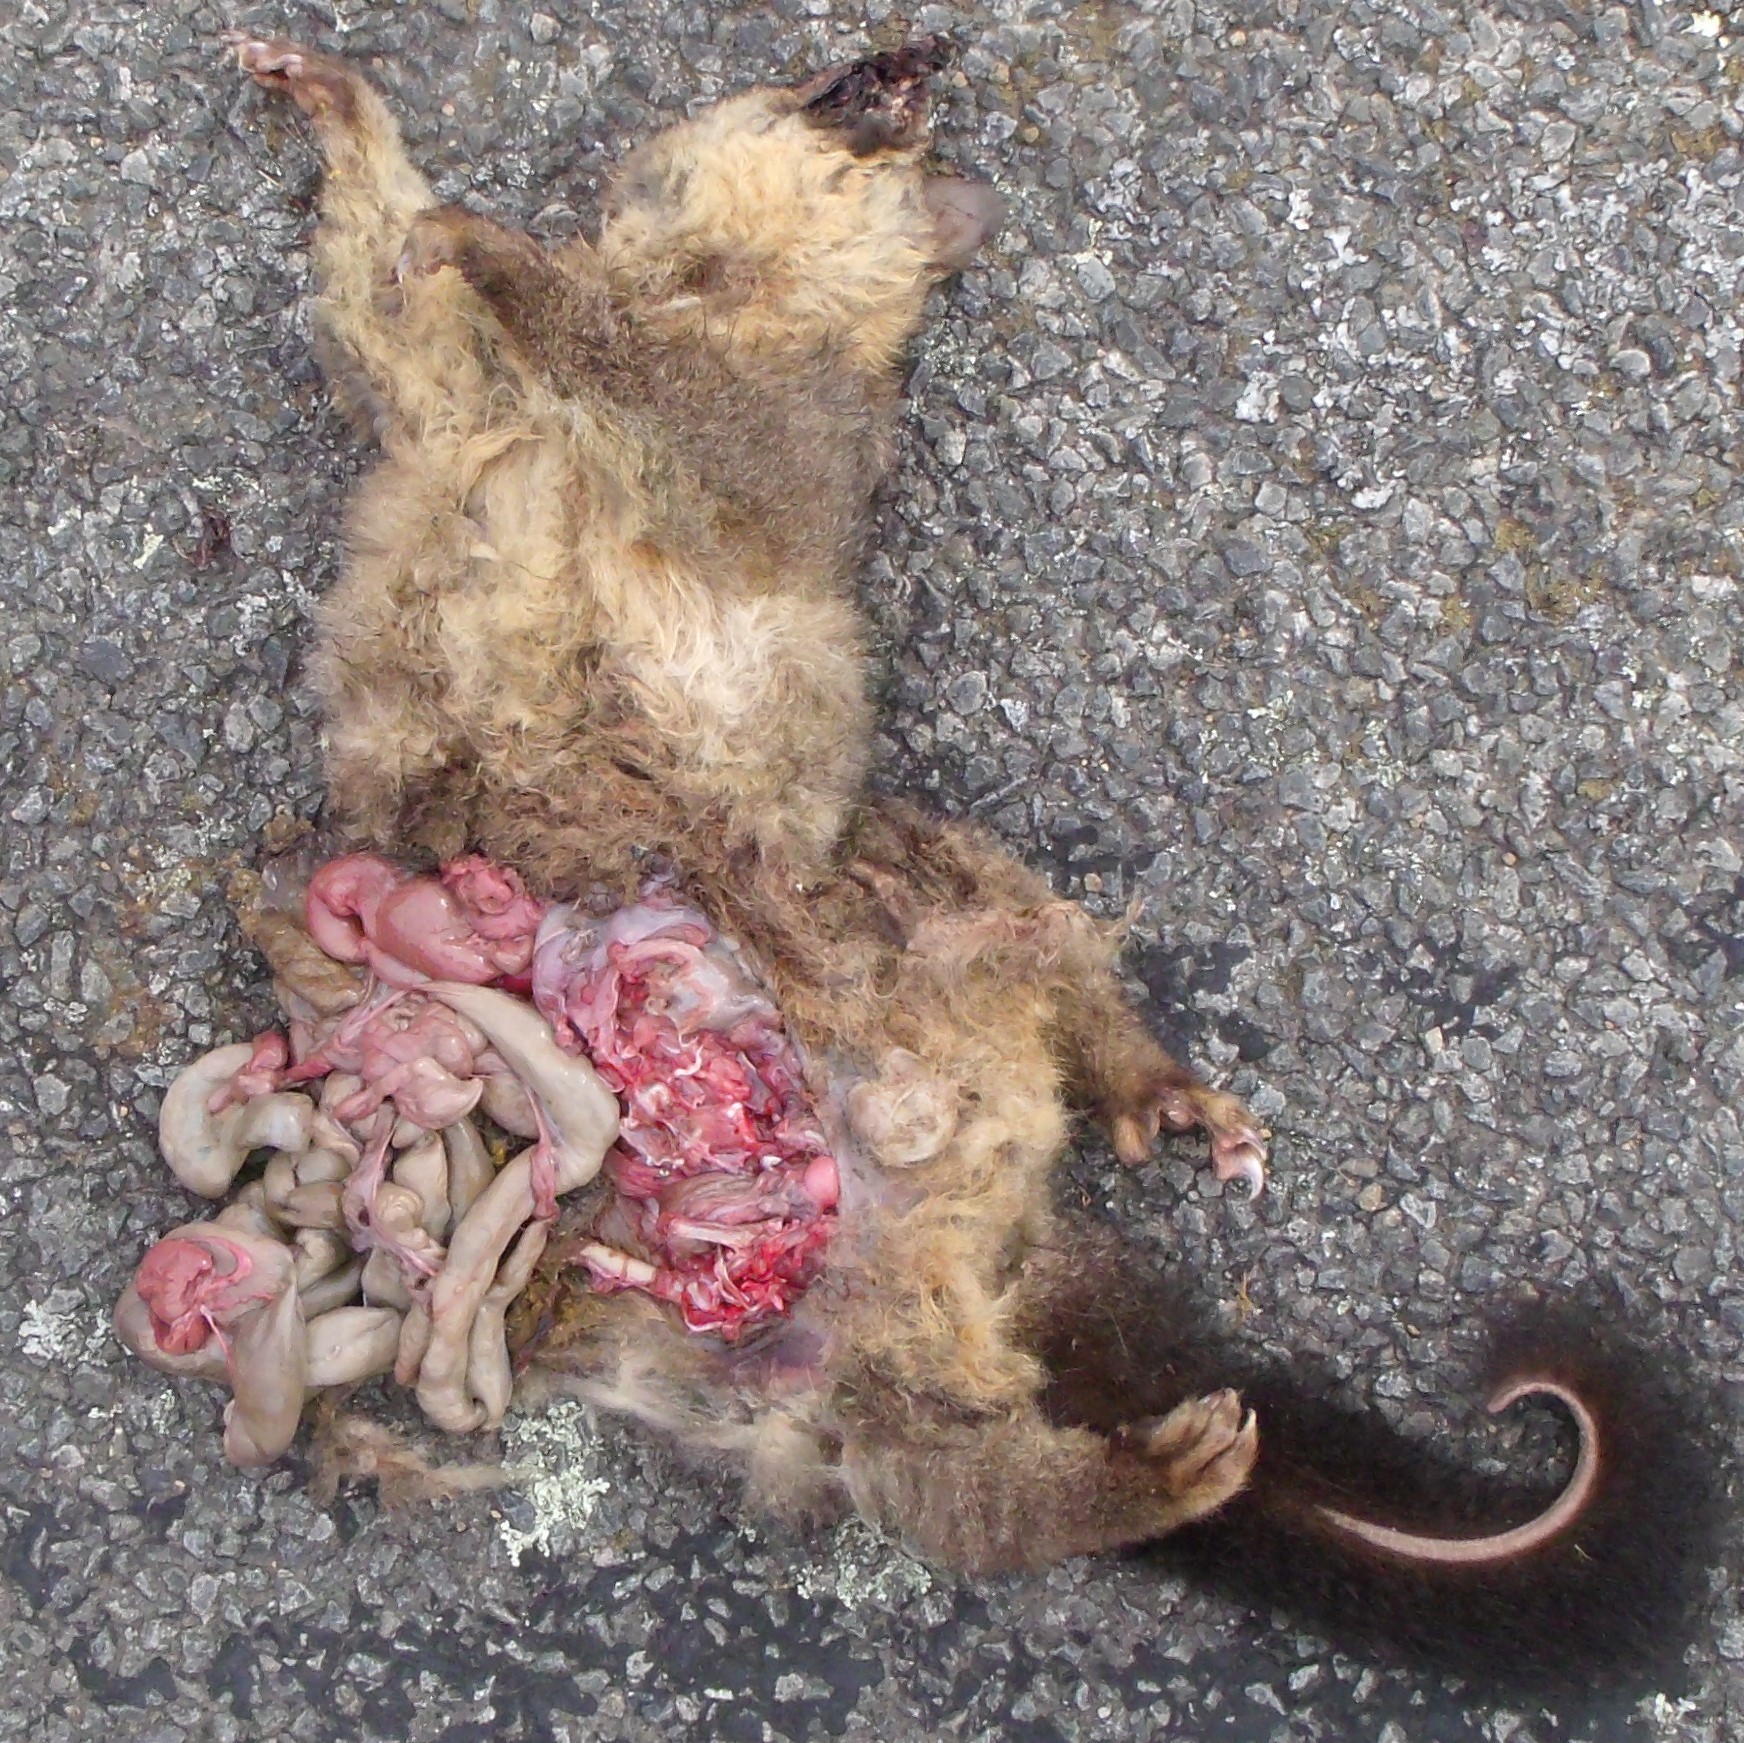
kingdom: Animalia
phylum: Chordata
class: Mammalia
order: Diprotodontia
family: Phalangeridae
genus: Trichosurus
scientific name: Trichosurus vulpecula
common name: Common brushtail
